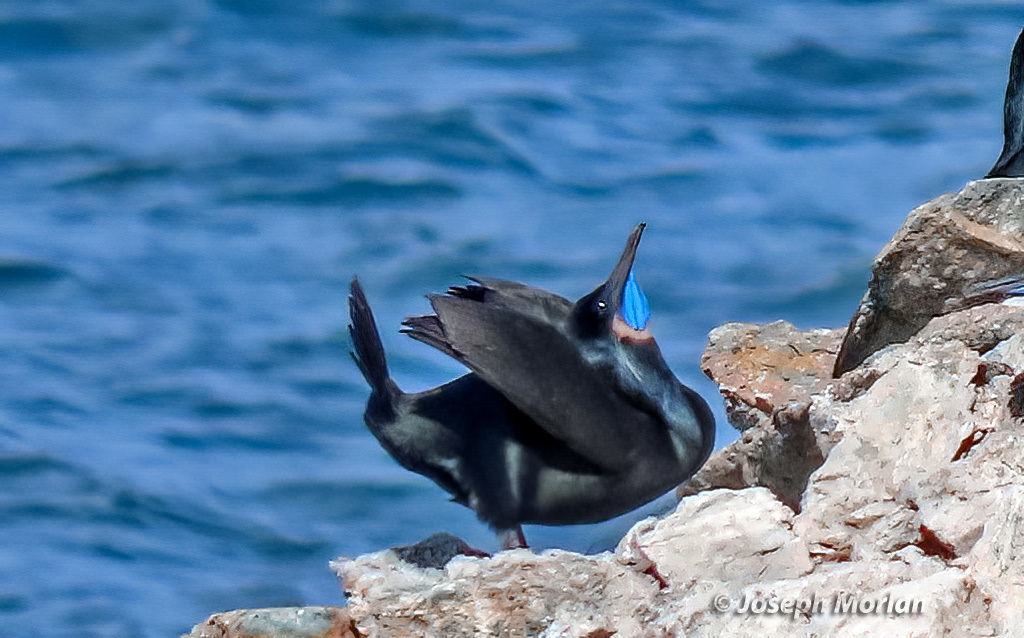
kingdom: Animalia
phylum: Chordata
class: Aves
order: Suliformes
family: Phalacrocoracidae
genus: Urile
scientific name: Urile penicillatus
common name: Brandt's cormorant
